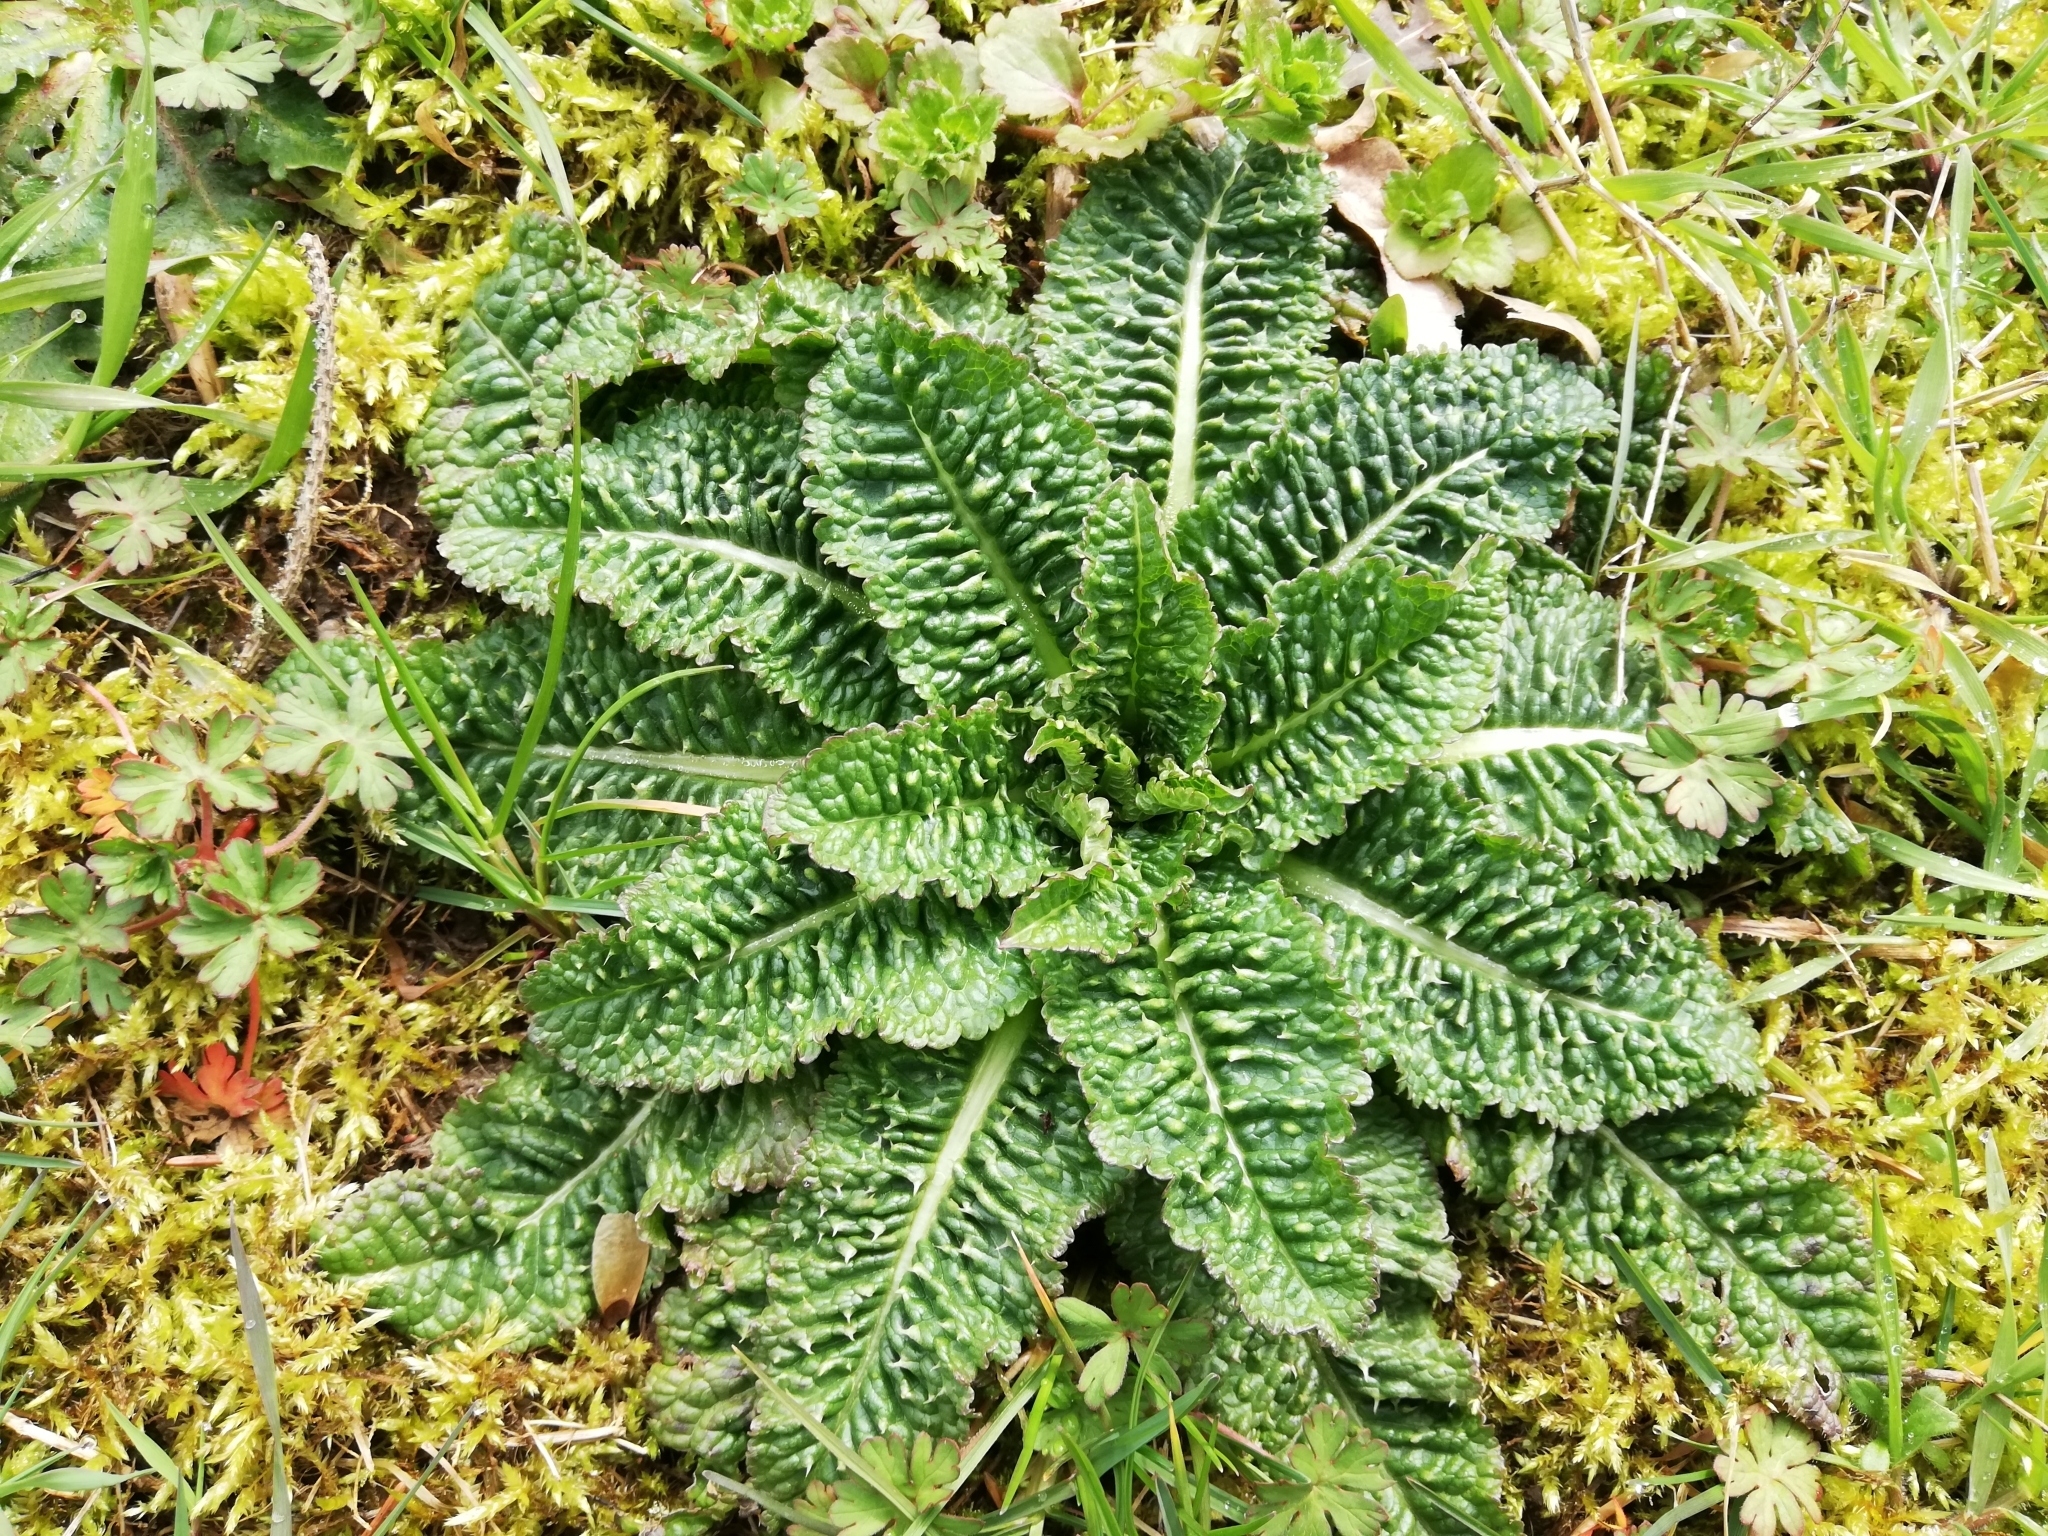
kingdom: Plantae
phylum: Tracheophyta
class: Magnoliopsida
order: Dipsacales
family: Caprifoliaceae
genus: Dipsacus
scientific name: Dipsacus fullonum
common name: Teasel
